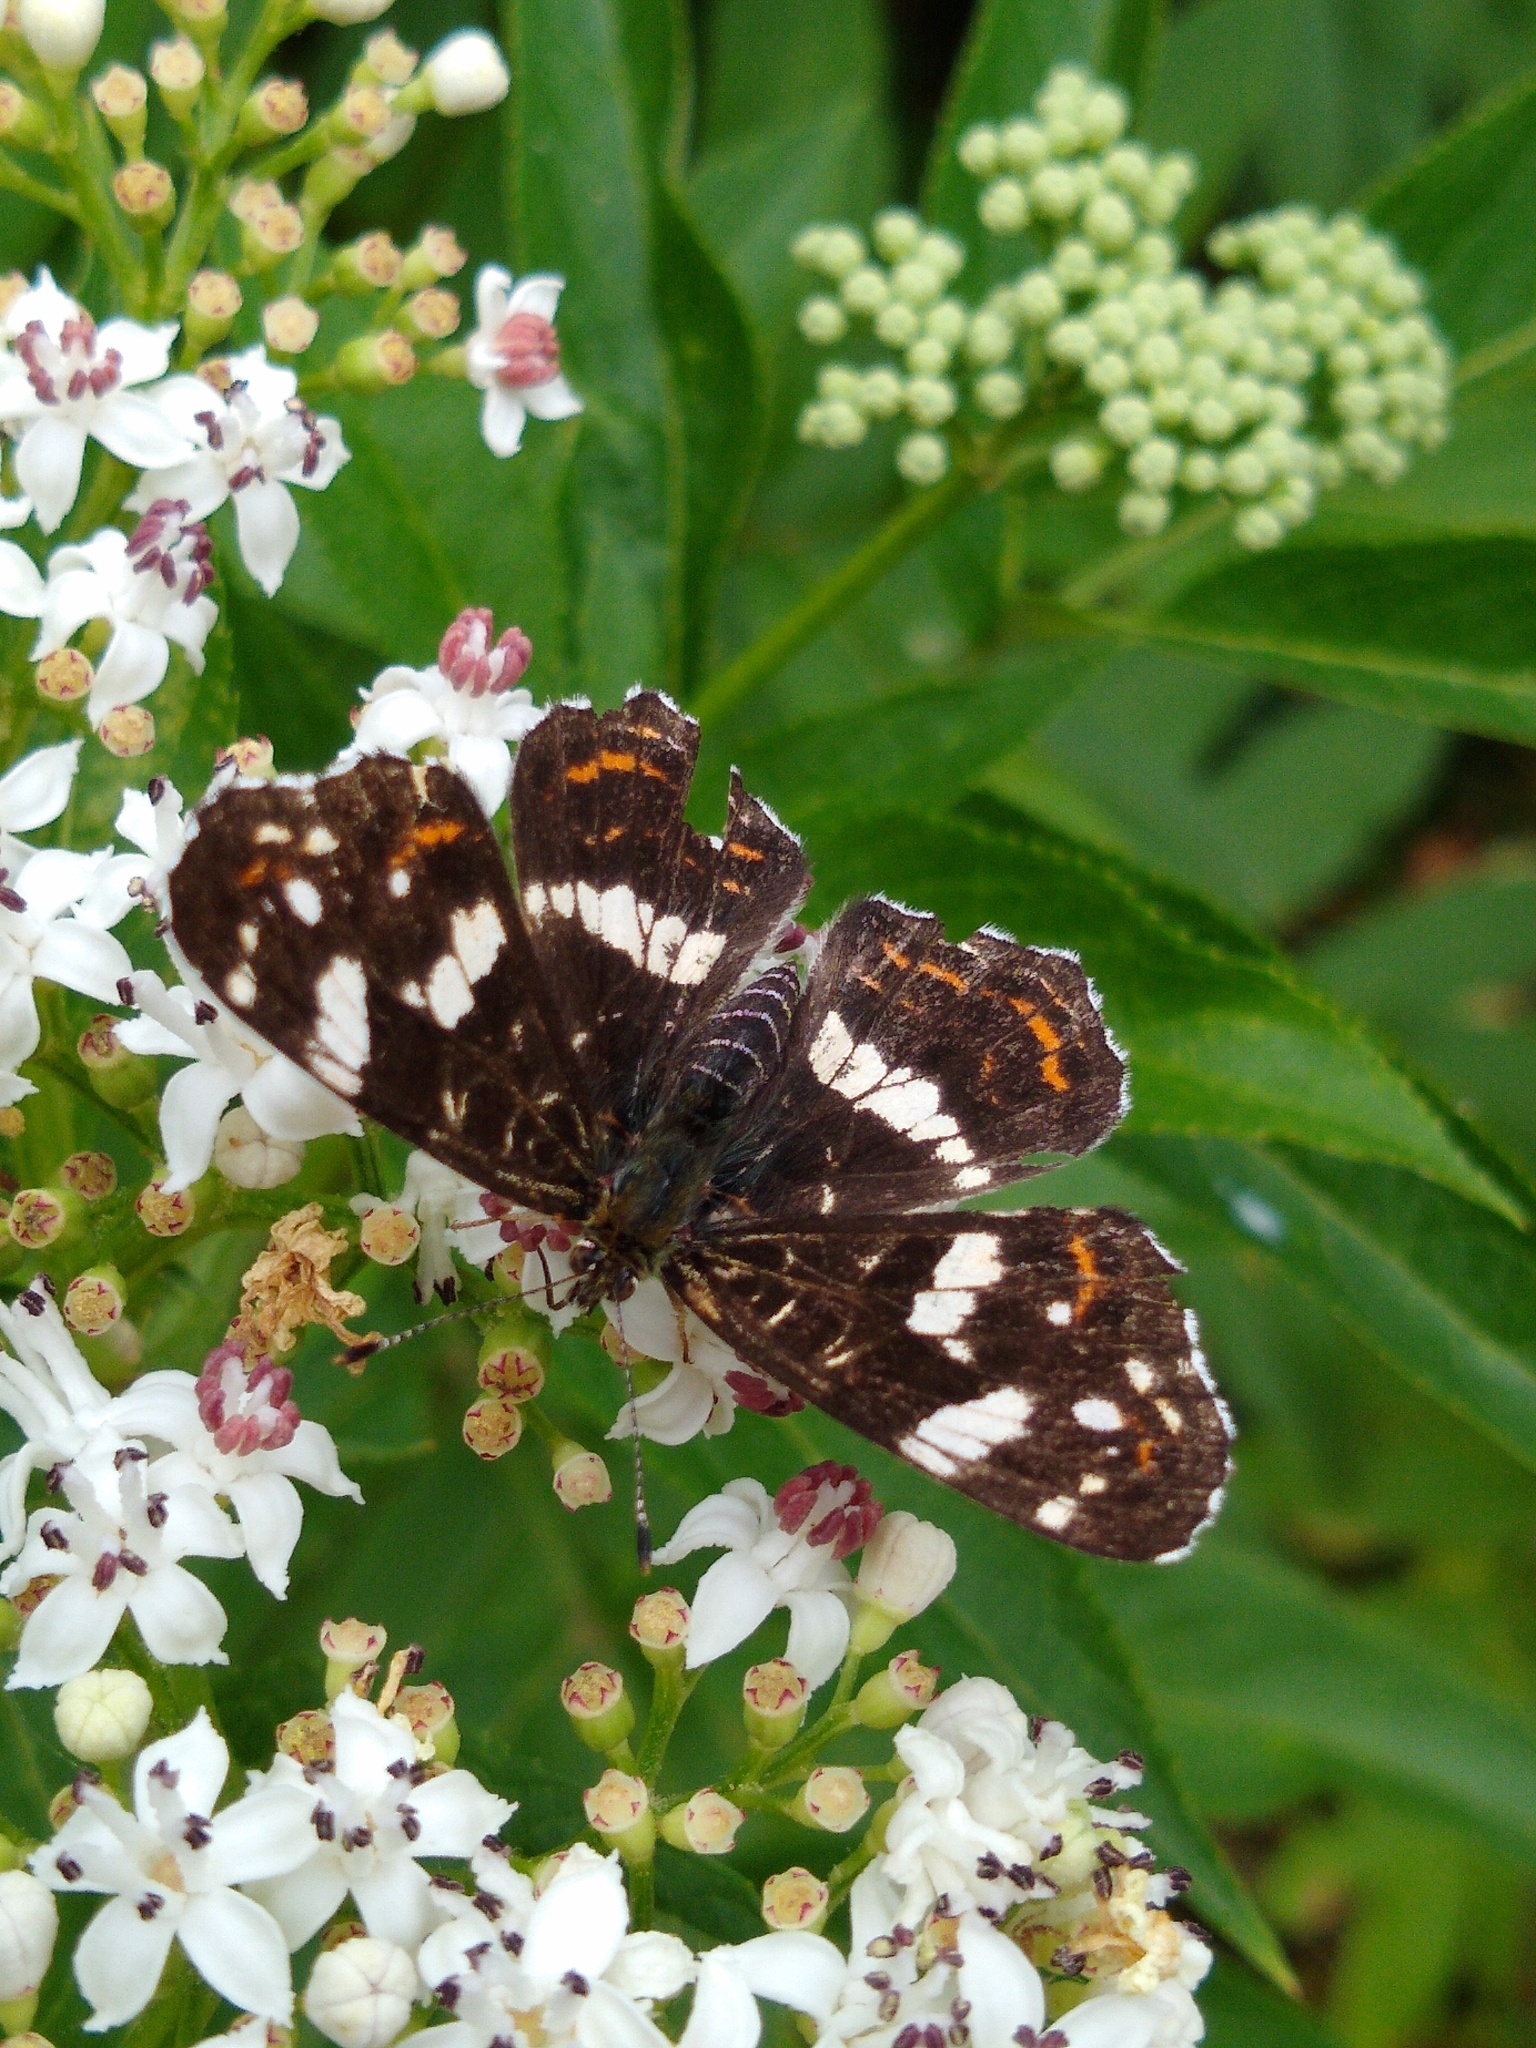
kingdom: Animalia
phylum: Arthropoda
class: Insecta
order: Lepidoptera
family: Nymphalidae
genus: Araschnia
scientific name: Araschnia levana
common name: Map butterfly
